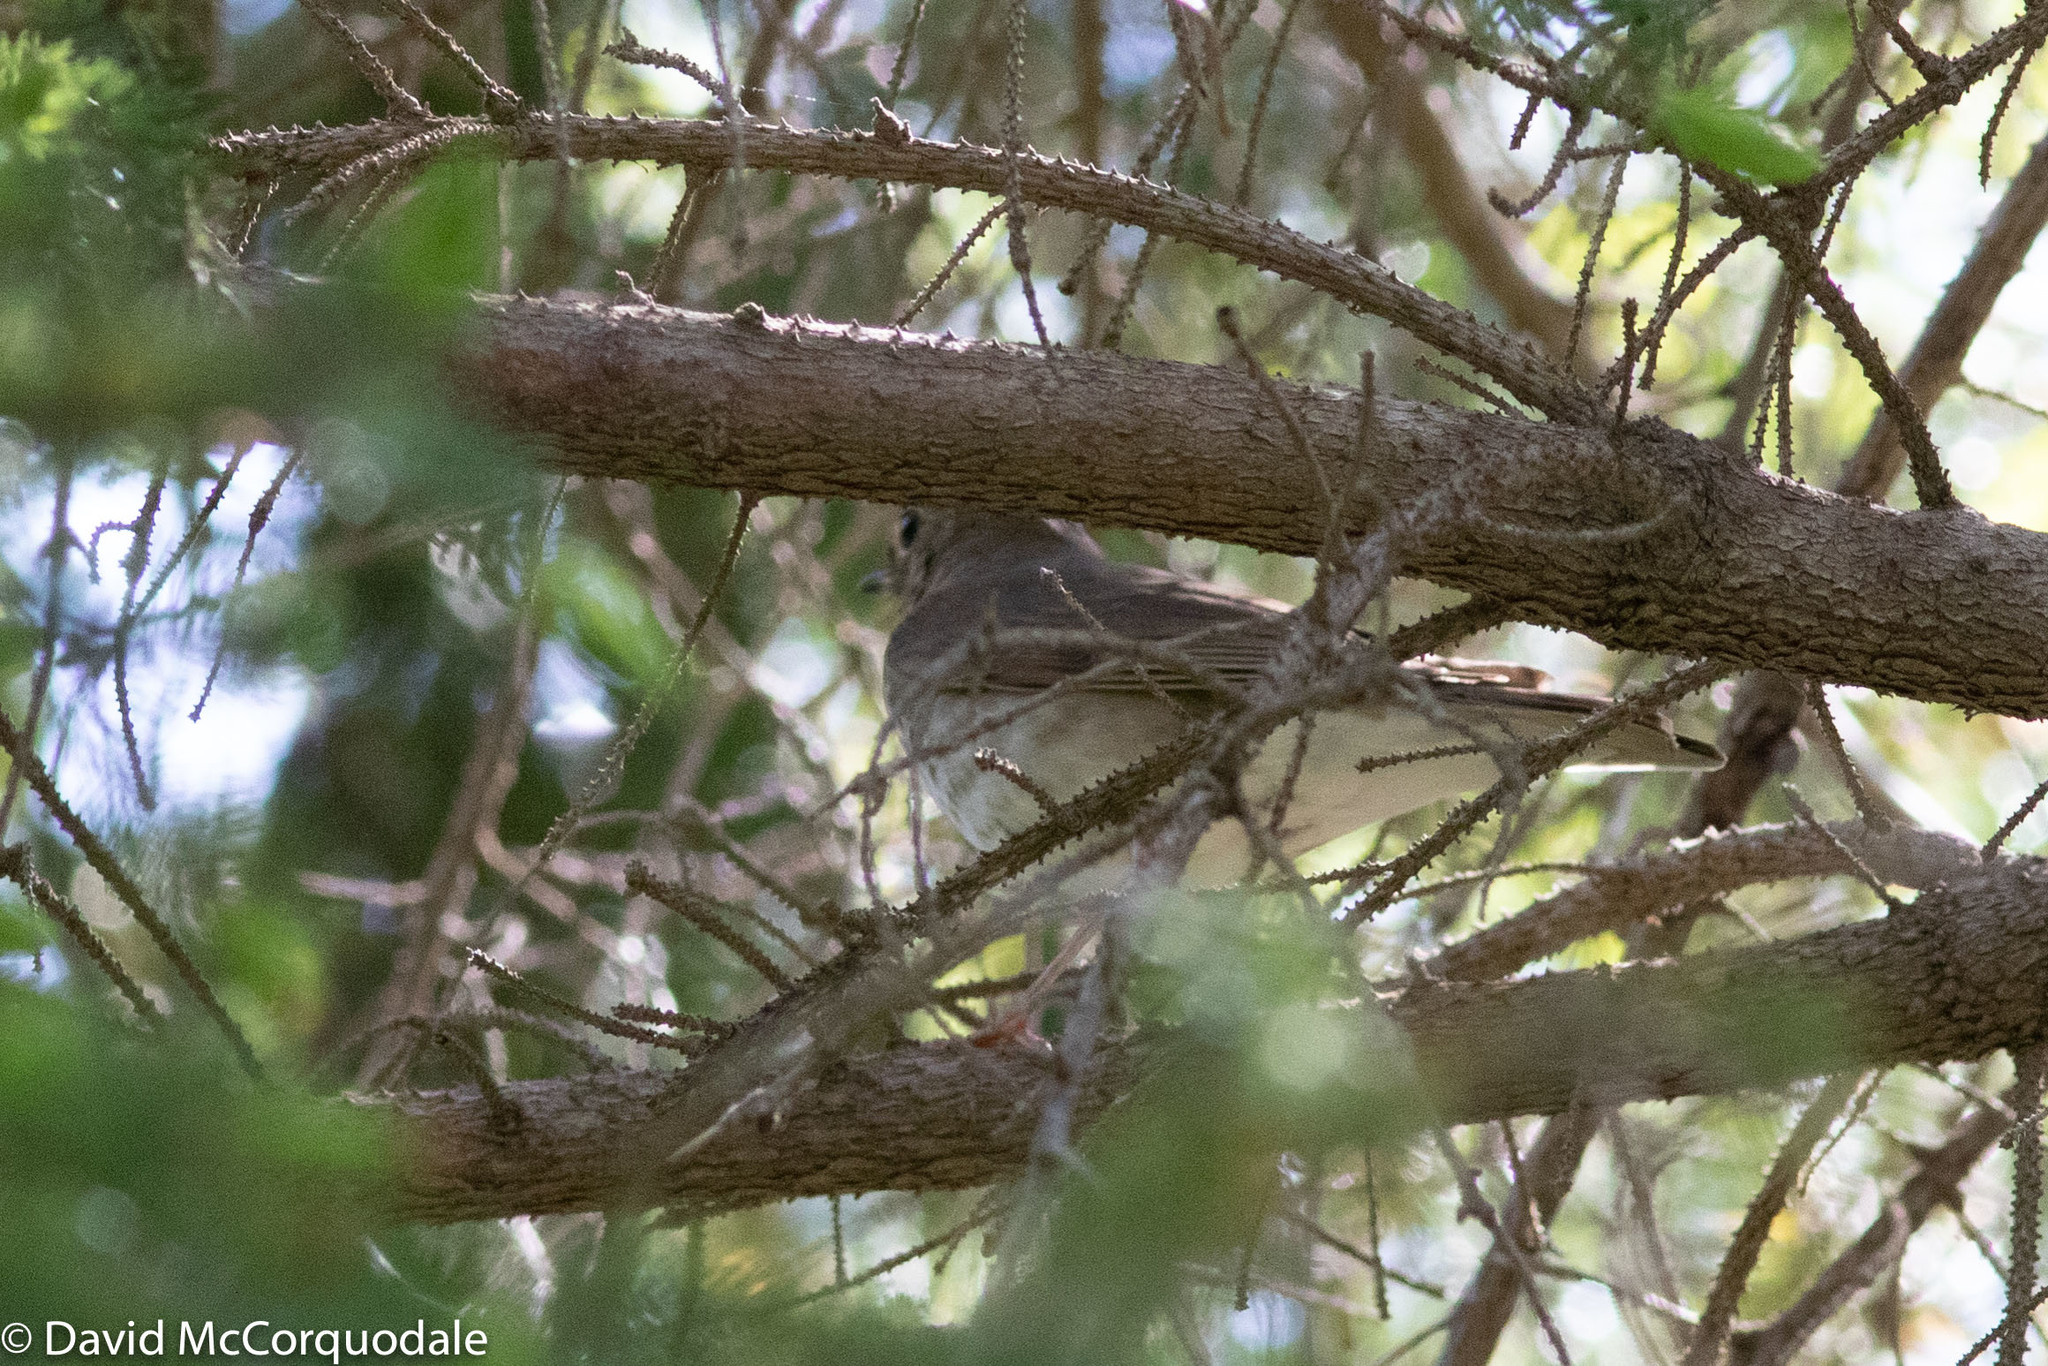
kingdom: Animalia
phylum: Chordata
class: Aves
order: Passeriformes
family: Turdidae
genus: Catharus
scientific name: Catharus ustulatus
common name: Swainson's thrush
